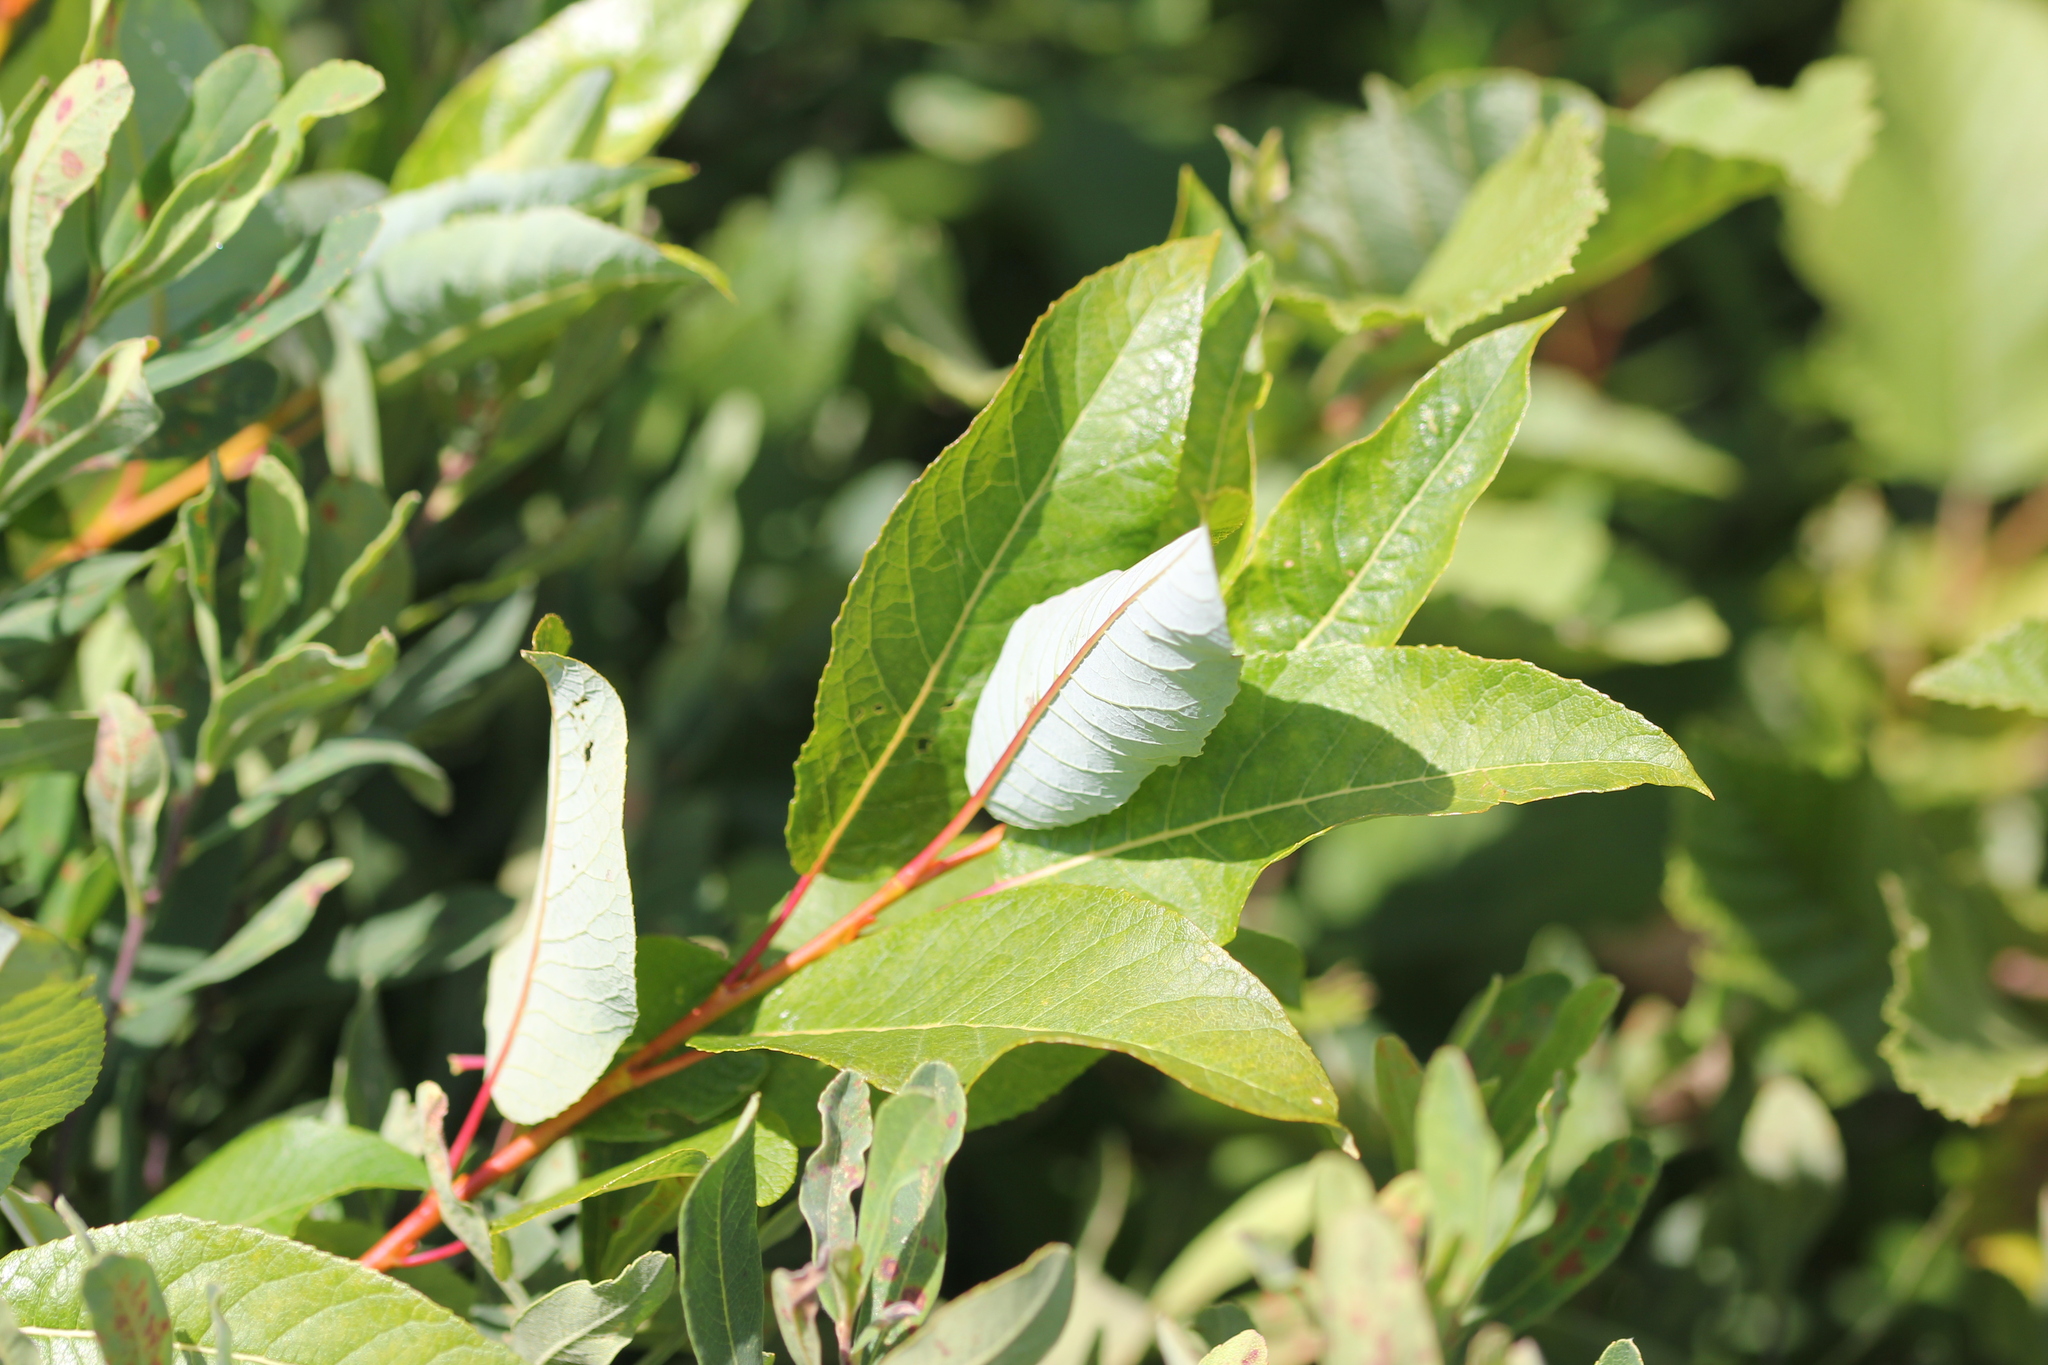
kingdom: Plantae
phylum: Tracheophyta
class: Magnoliopsida
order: Malpighiales
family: Salicaceae
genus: Salix
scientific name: Salix pyrifolia
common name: Balsam willow
